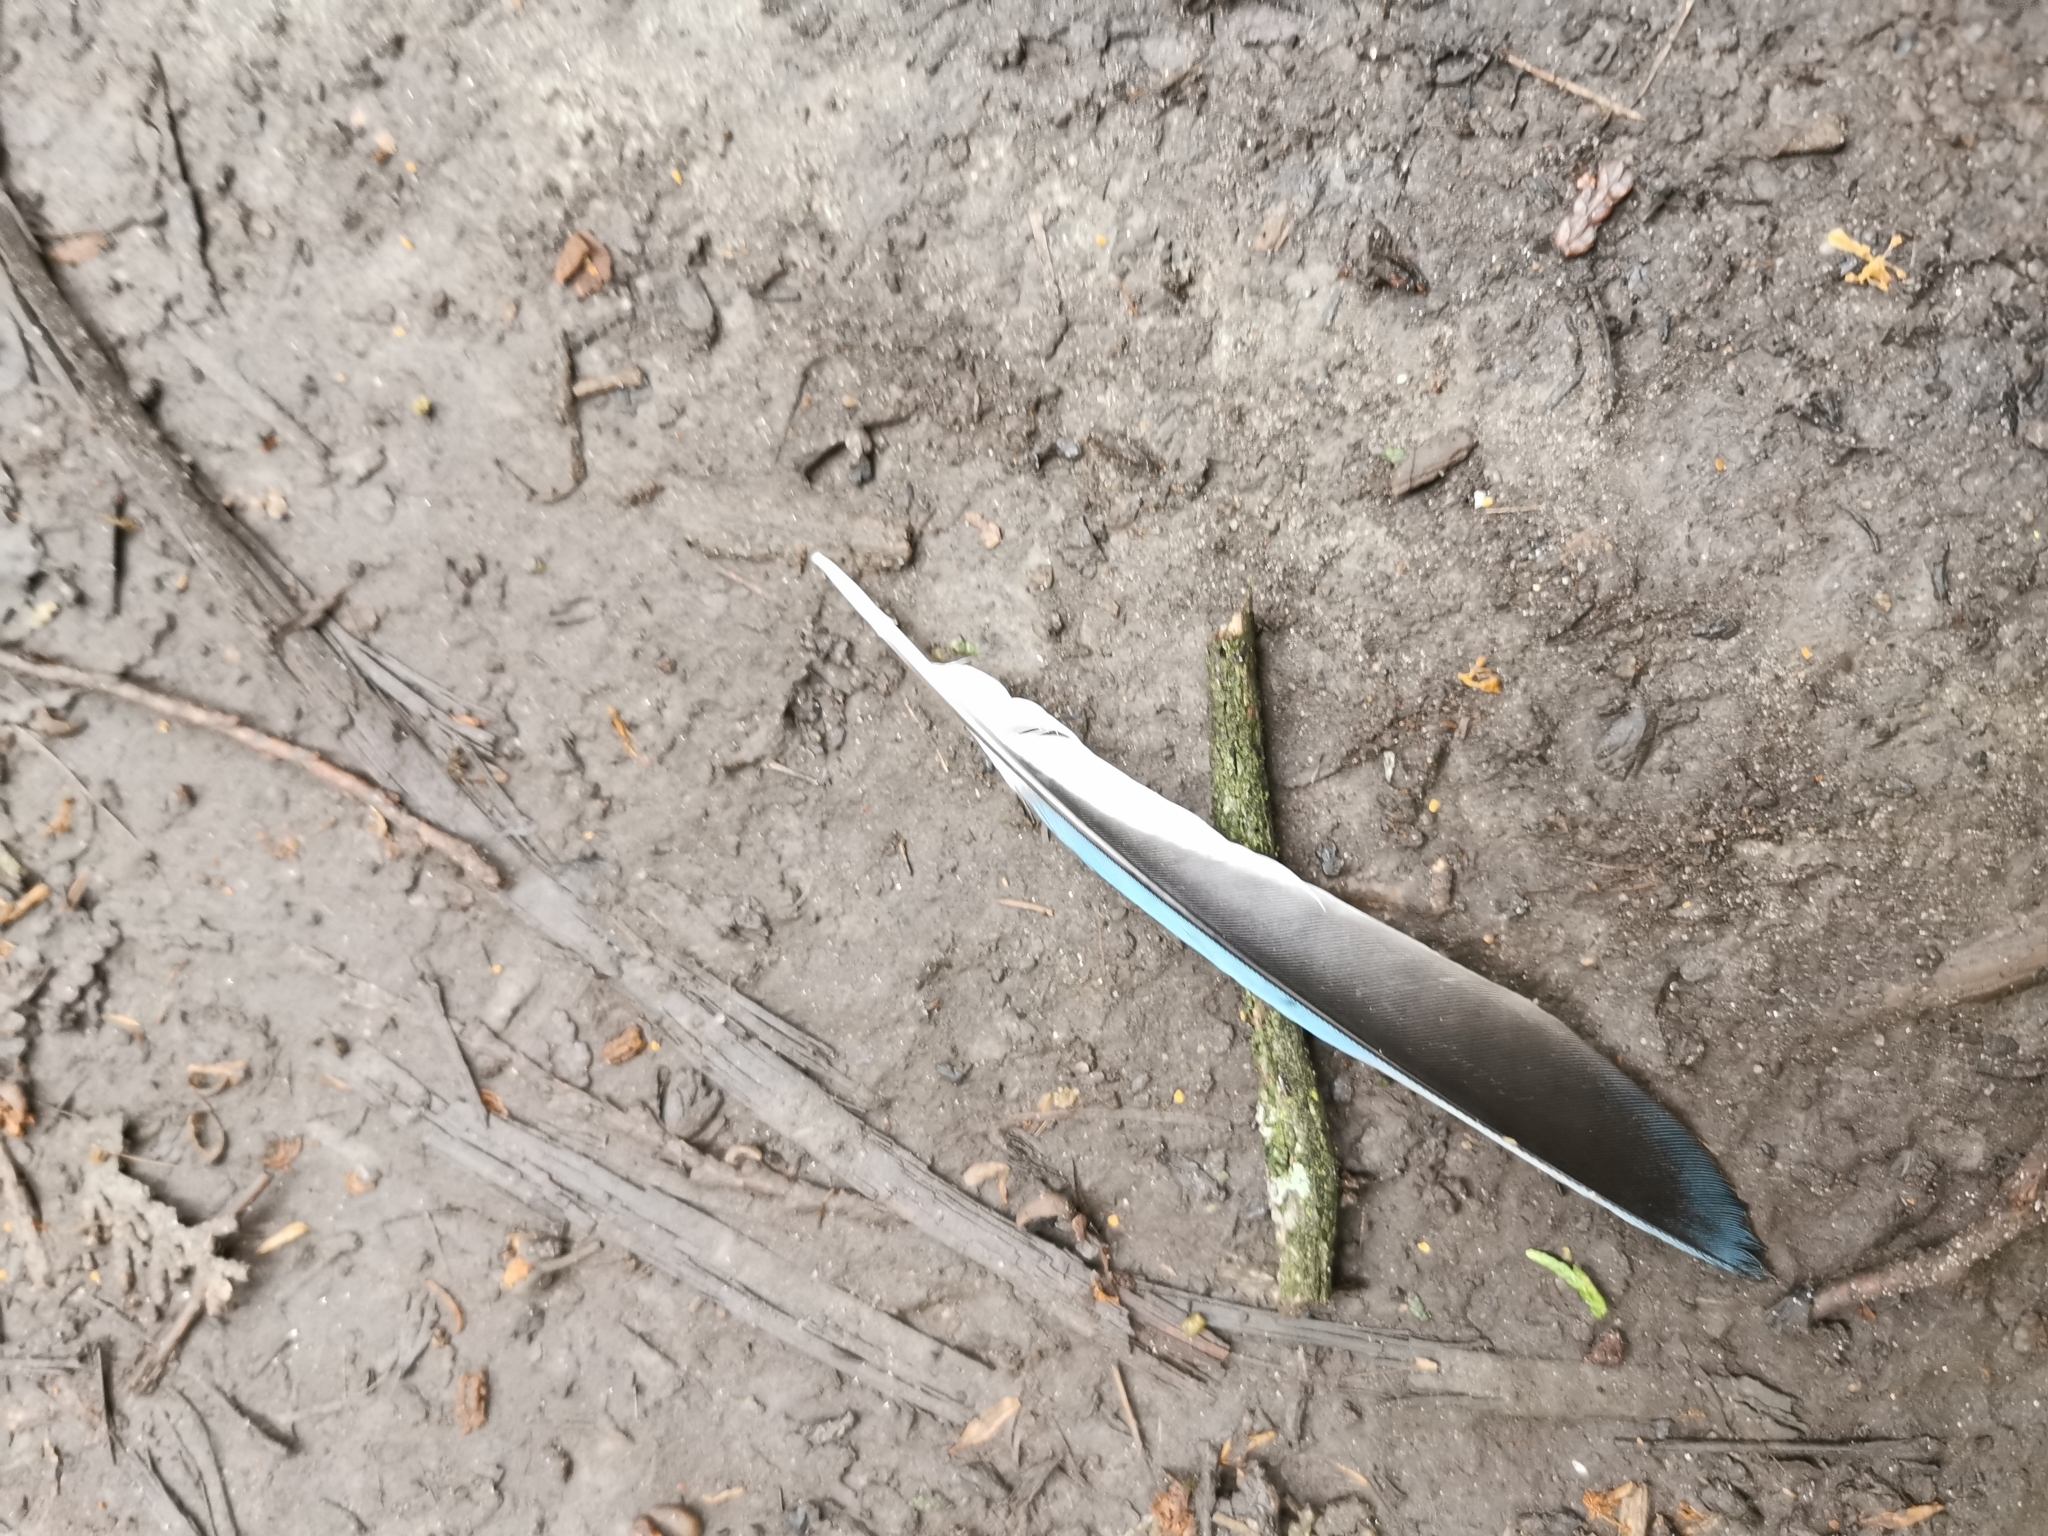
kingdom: Animalia
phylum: Chordata
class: Aves
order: Passeriformes
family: Corvidae
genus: Cyanocitta
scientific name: Cyanocitta cristata
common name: Blue jay
